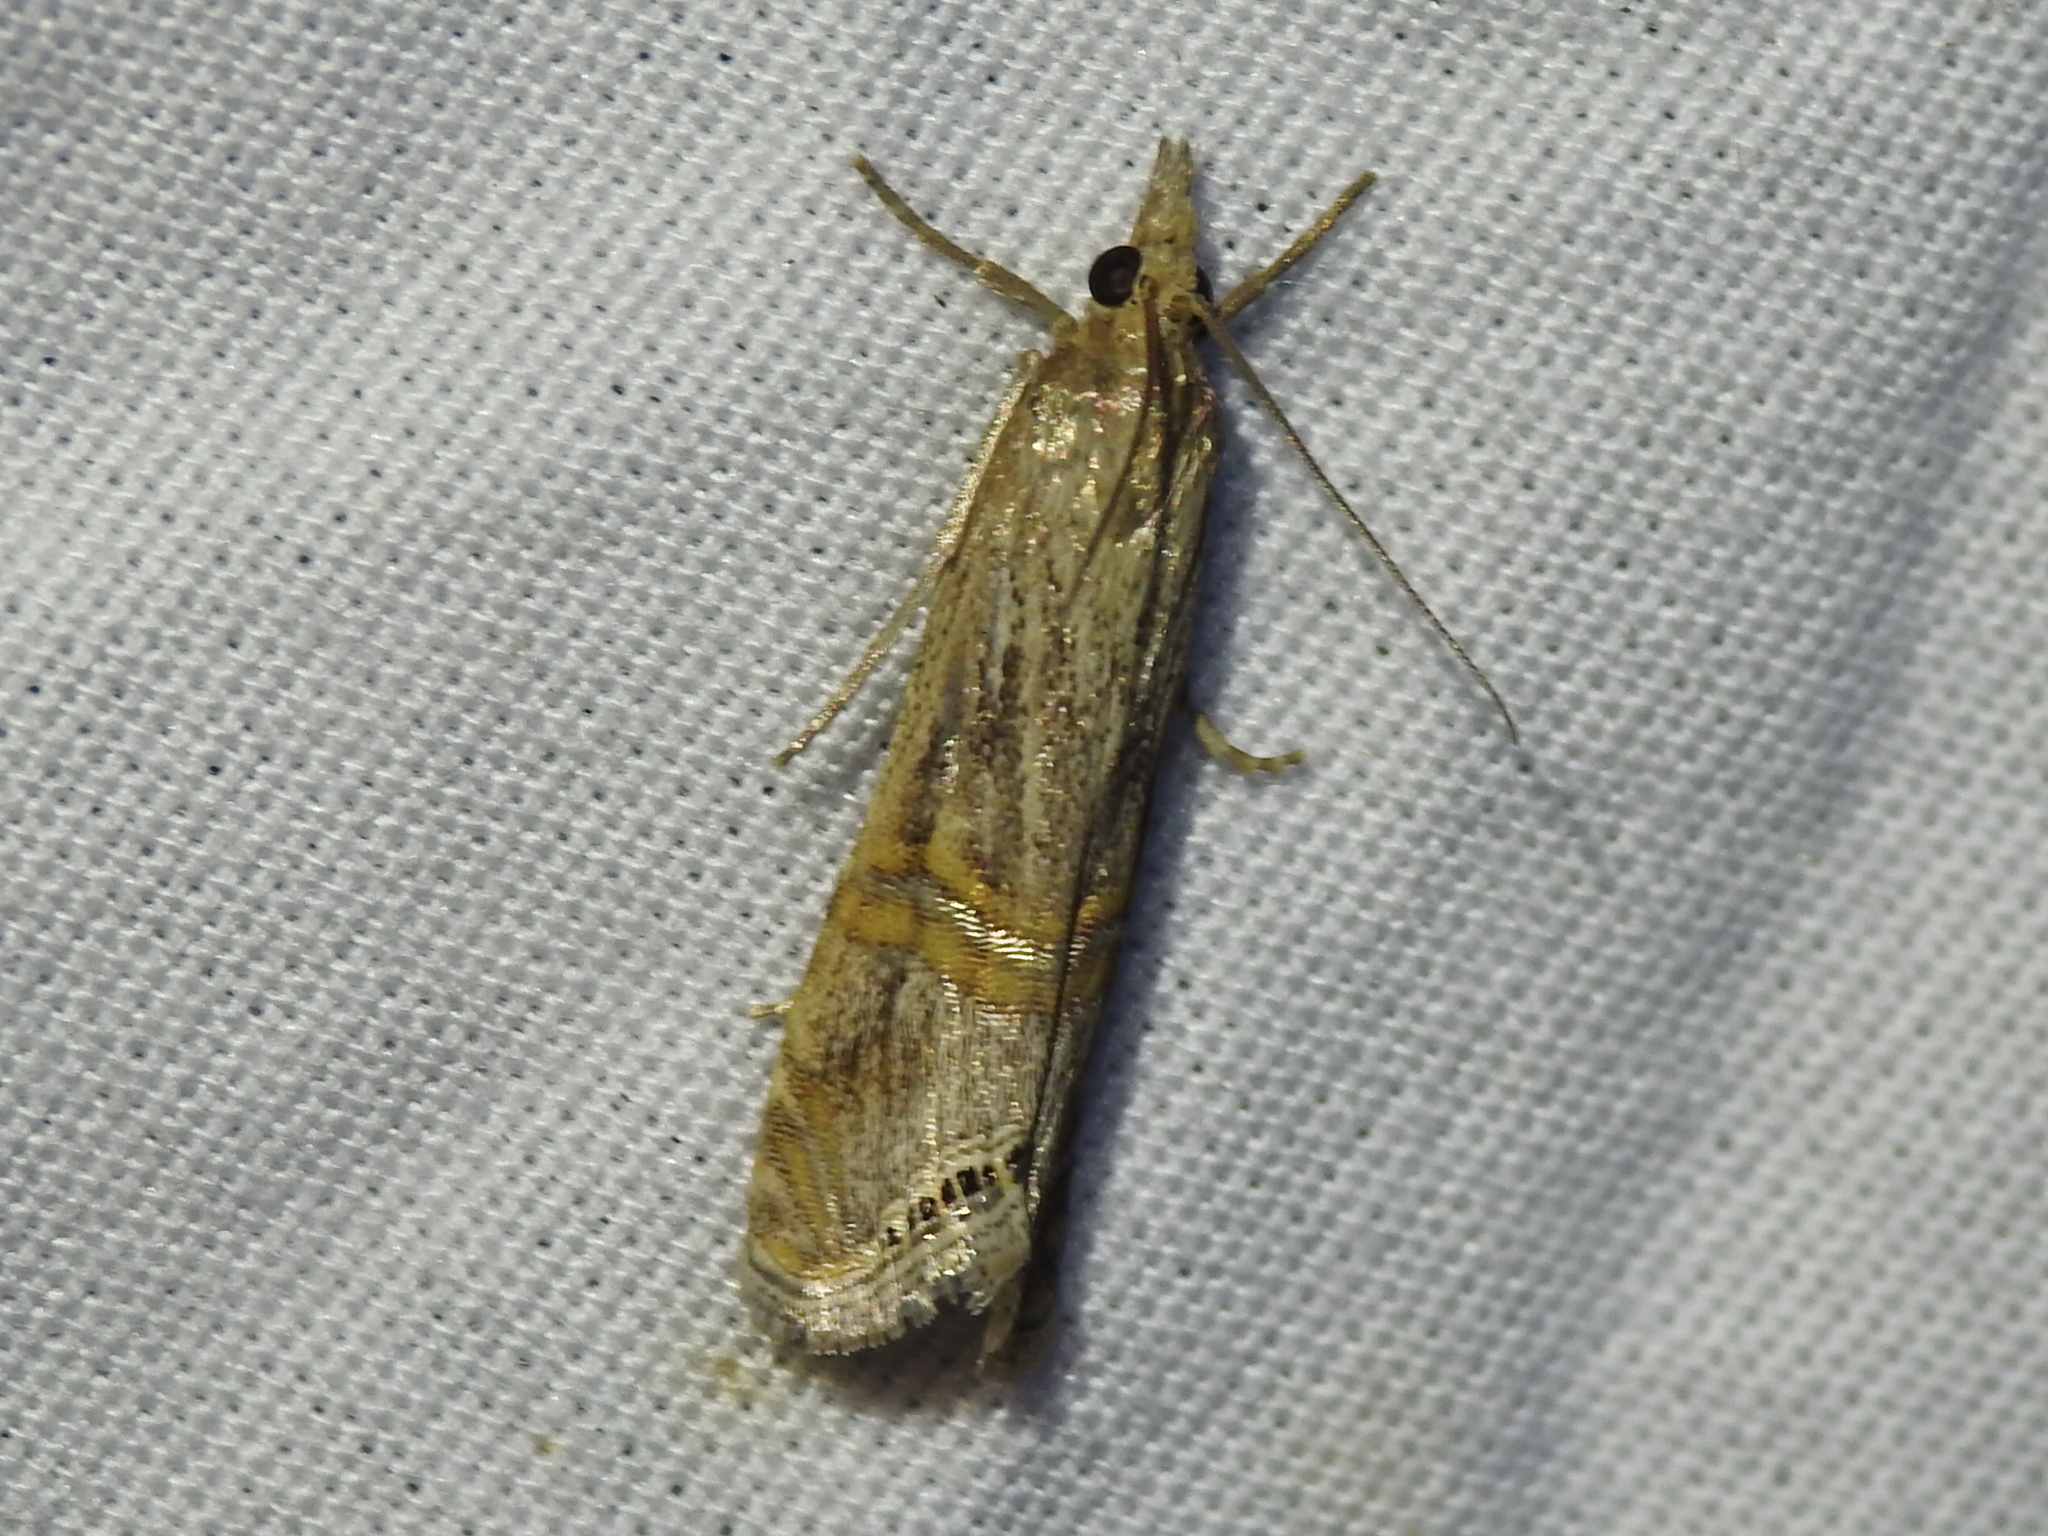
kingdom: Animalia
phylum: Arthropoda
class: Insecta
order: Lepidoptera
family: Crambidae
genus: Euchromius
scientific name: Euchromius ocellea
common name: Necklace veneer moth
